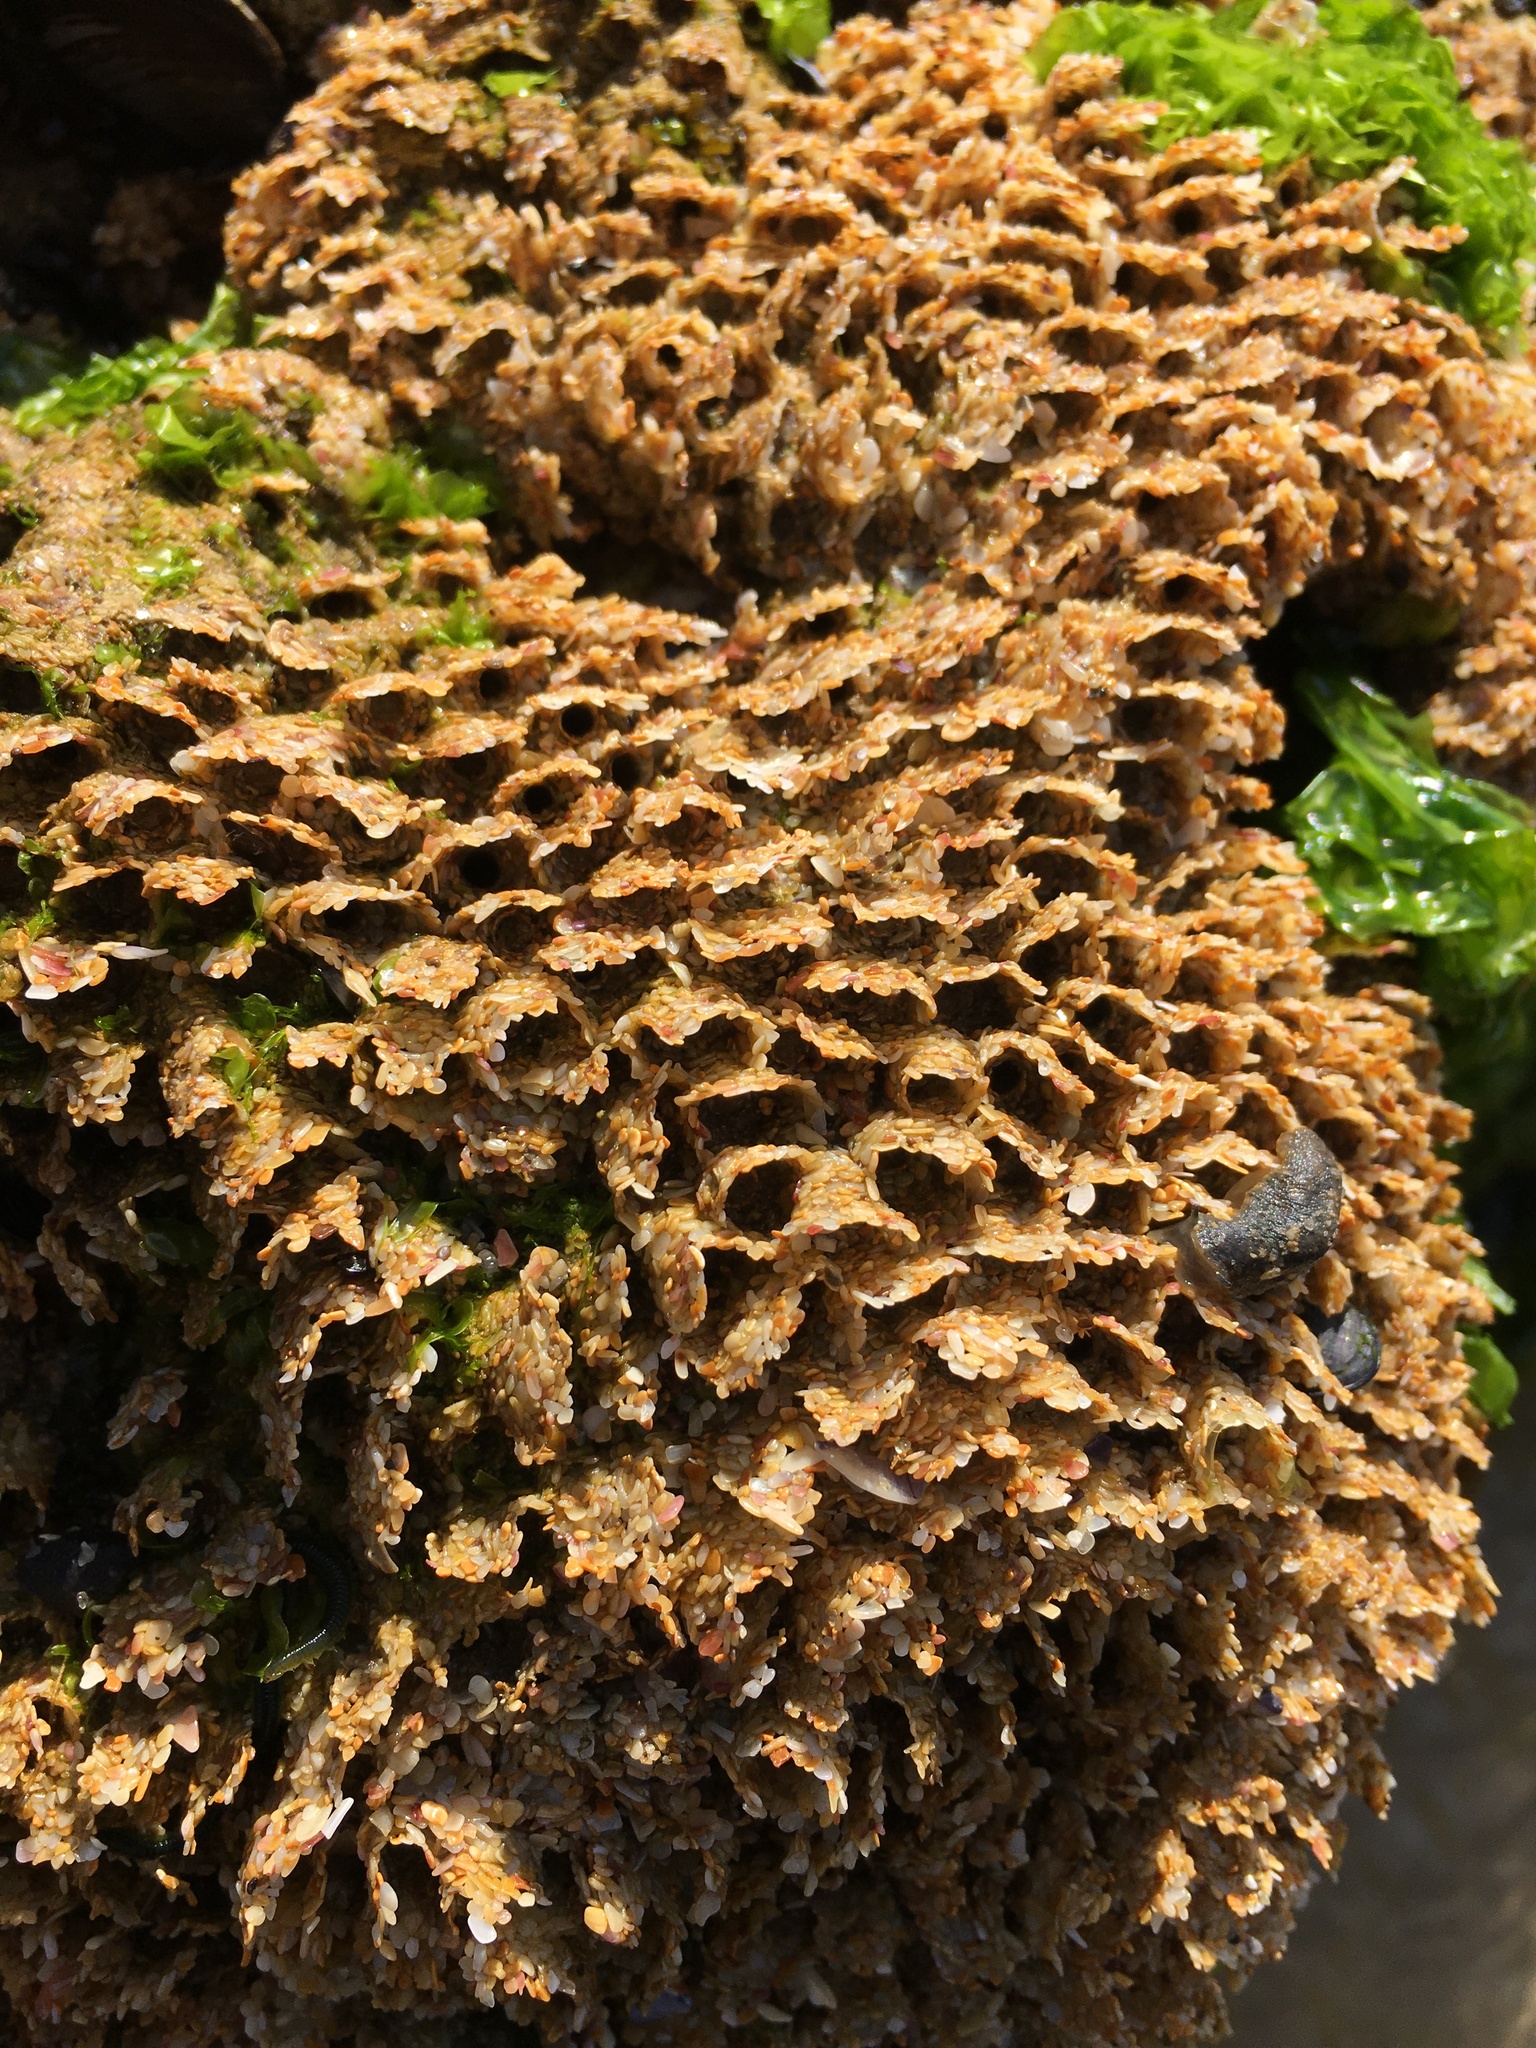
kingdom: Animalia
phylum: Annelida
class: Polychaeta
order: Sabellida
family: Sabellariidae
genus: Sabellaria
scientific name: Sabellaria alveolata
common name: Honeycomb worm
